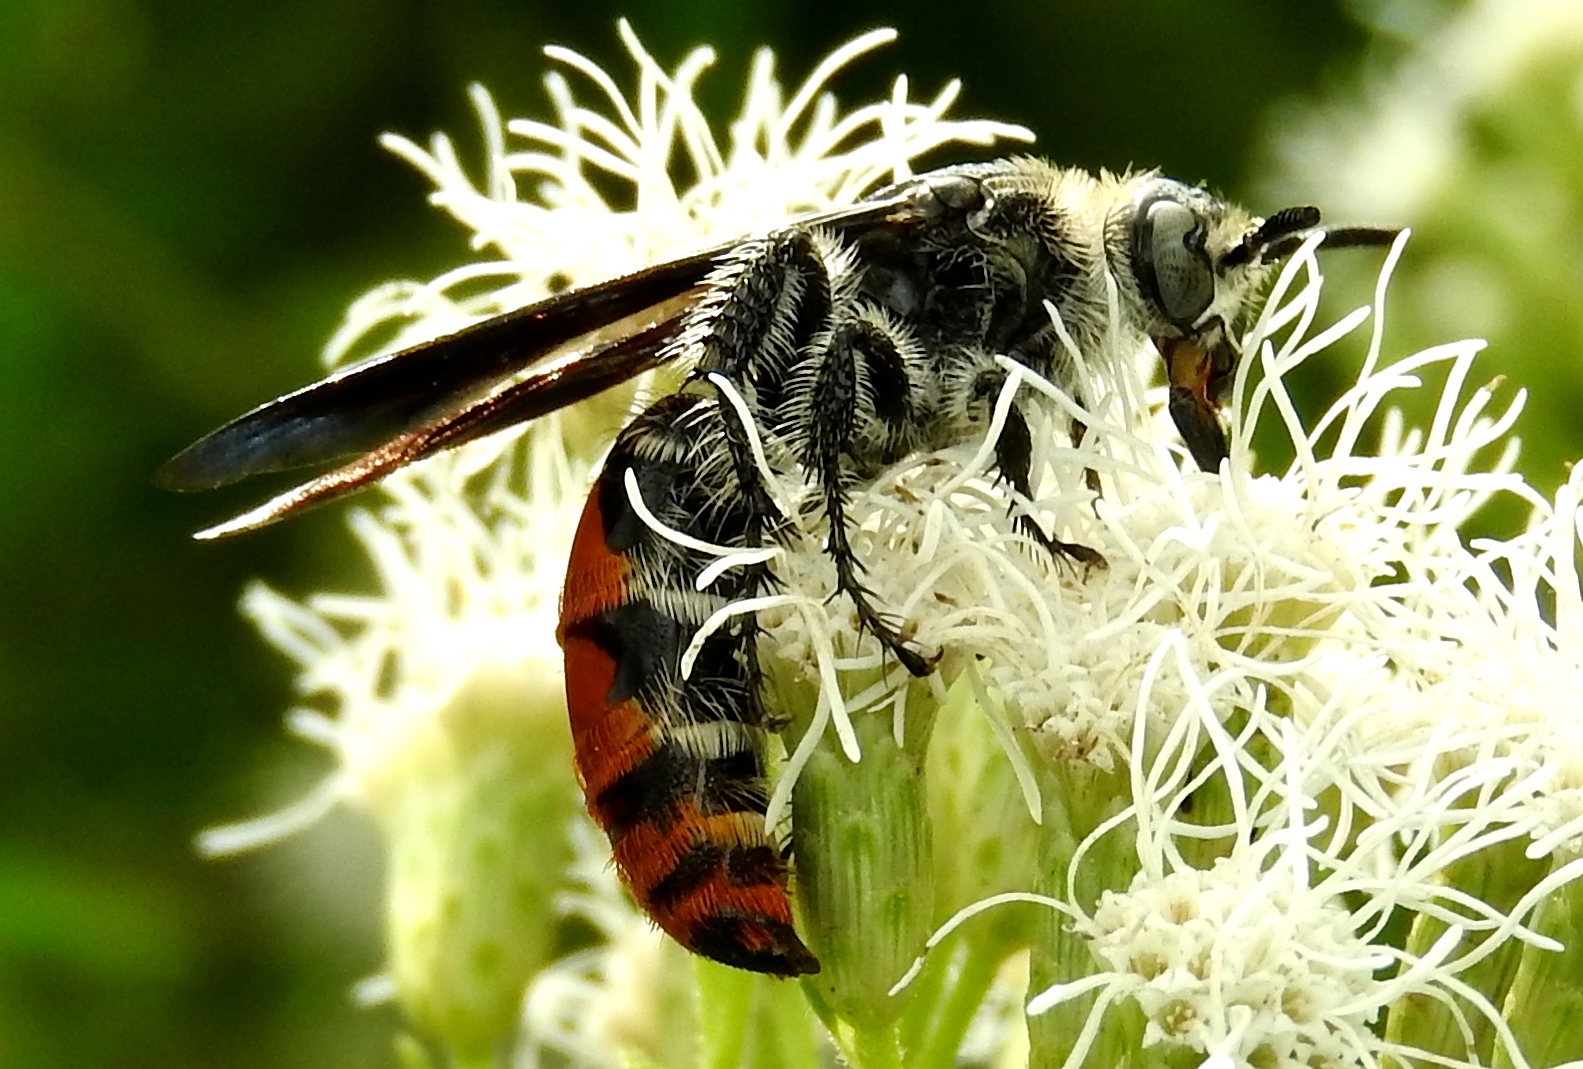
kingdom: Animalia
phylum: Arthropoda
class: Insecta
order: Hymenoptera
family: Scoliidae
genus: Dielis
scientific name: Dielis tolteca
